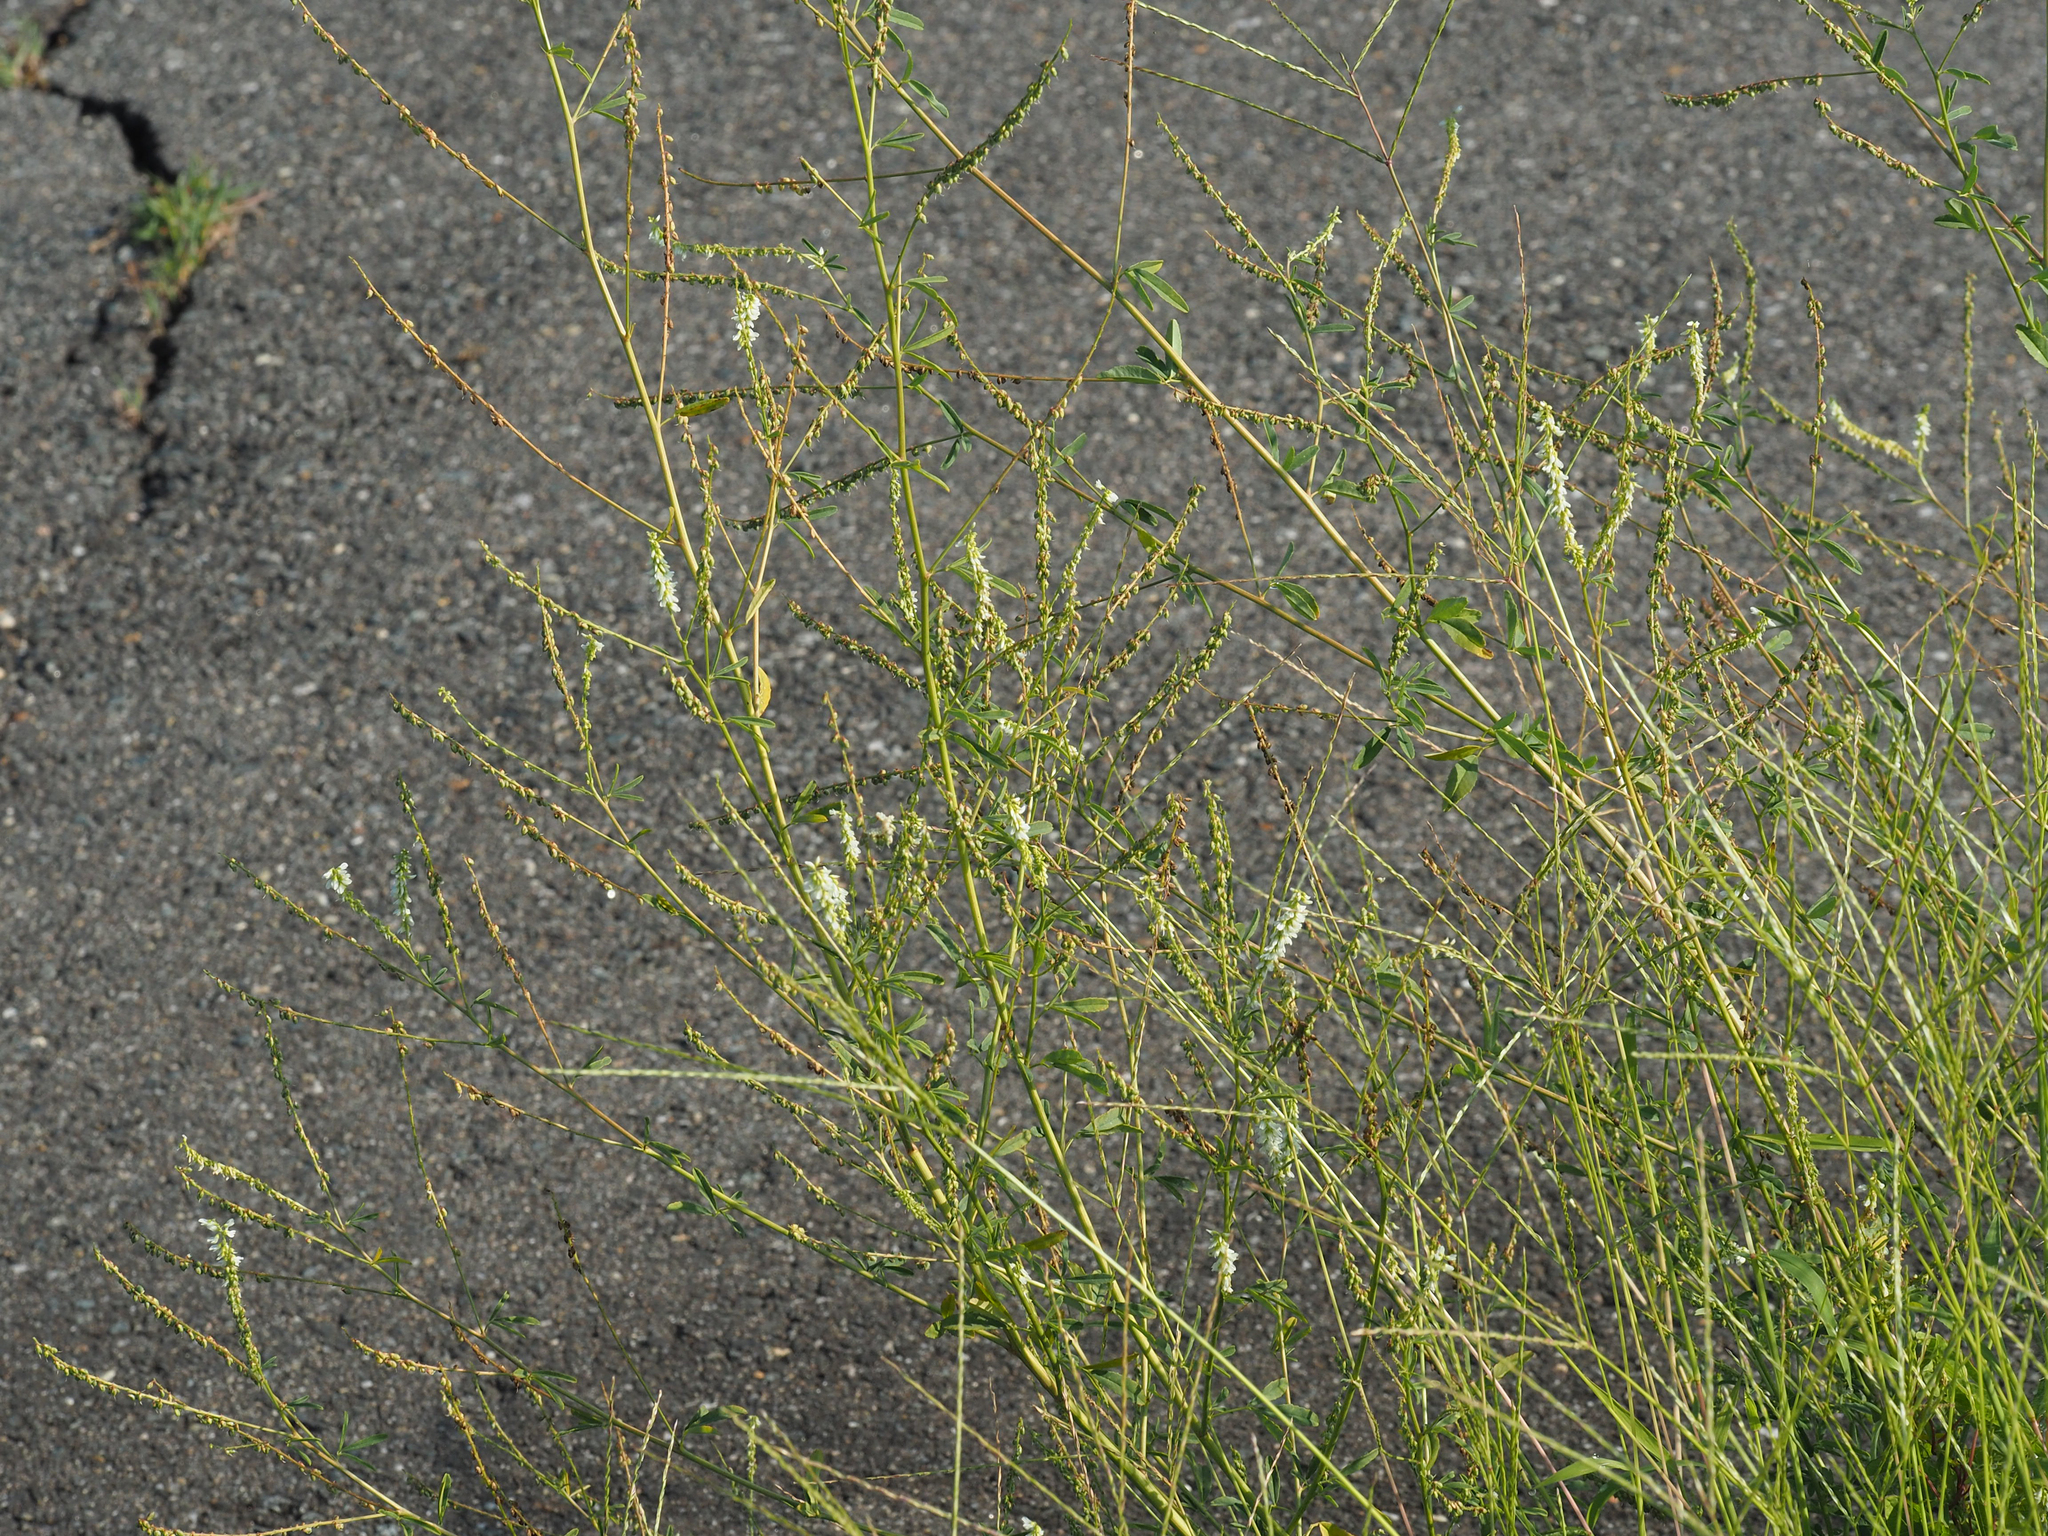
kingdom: Plantae
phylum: Tracheophyta
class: Magnoliopsida
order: Fabales
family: Fabaceae
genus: Melilotus
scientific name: Melilotus albus
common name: White melilot
